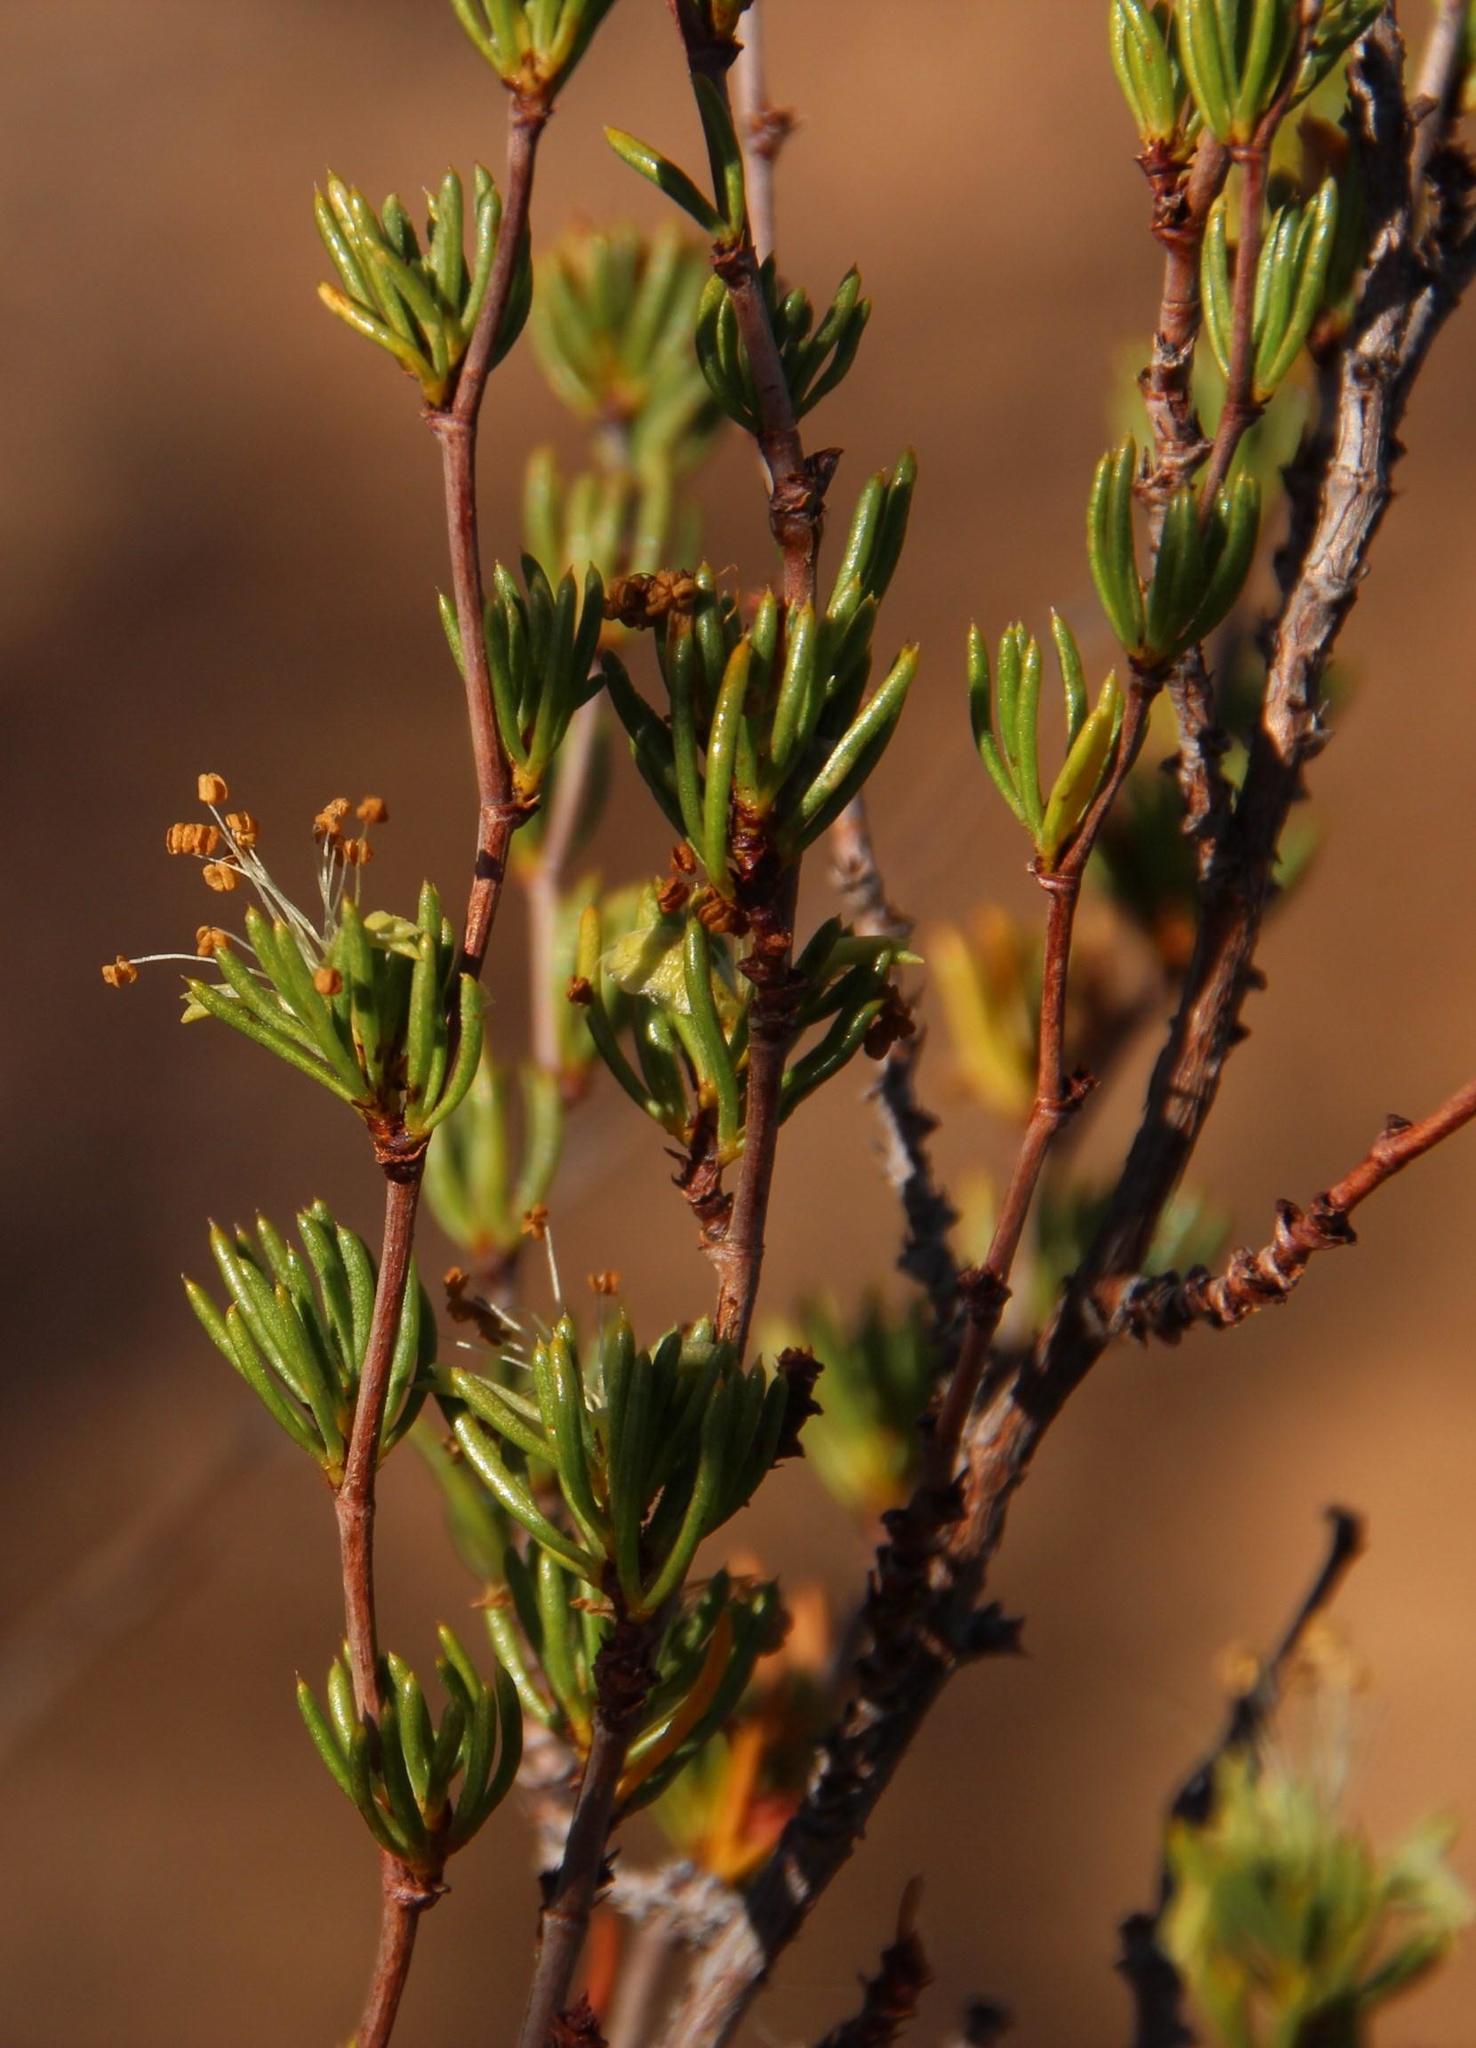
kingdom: Plantae
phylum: Tracheophyta
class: Magnoliopsida
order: Rosales
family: Rosaceae
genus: Cliffortia
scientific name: Cliffortia teretifolia
